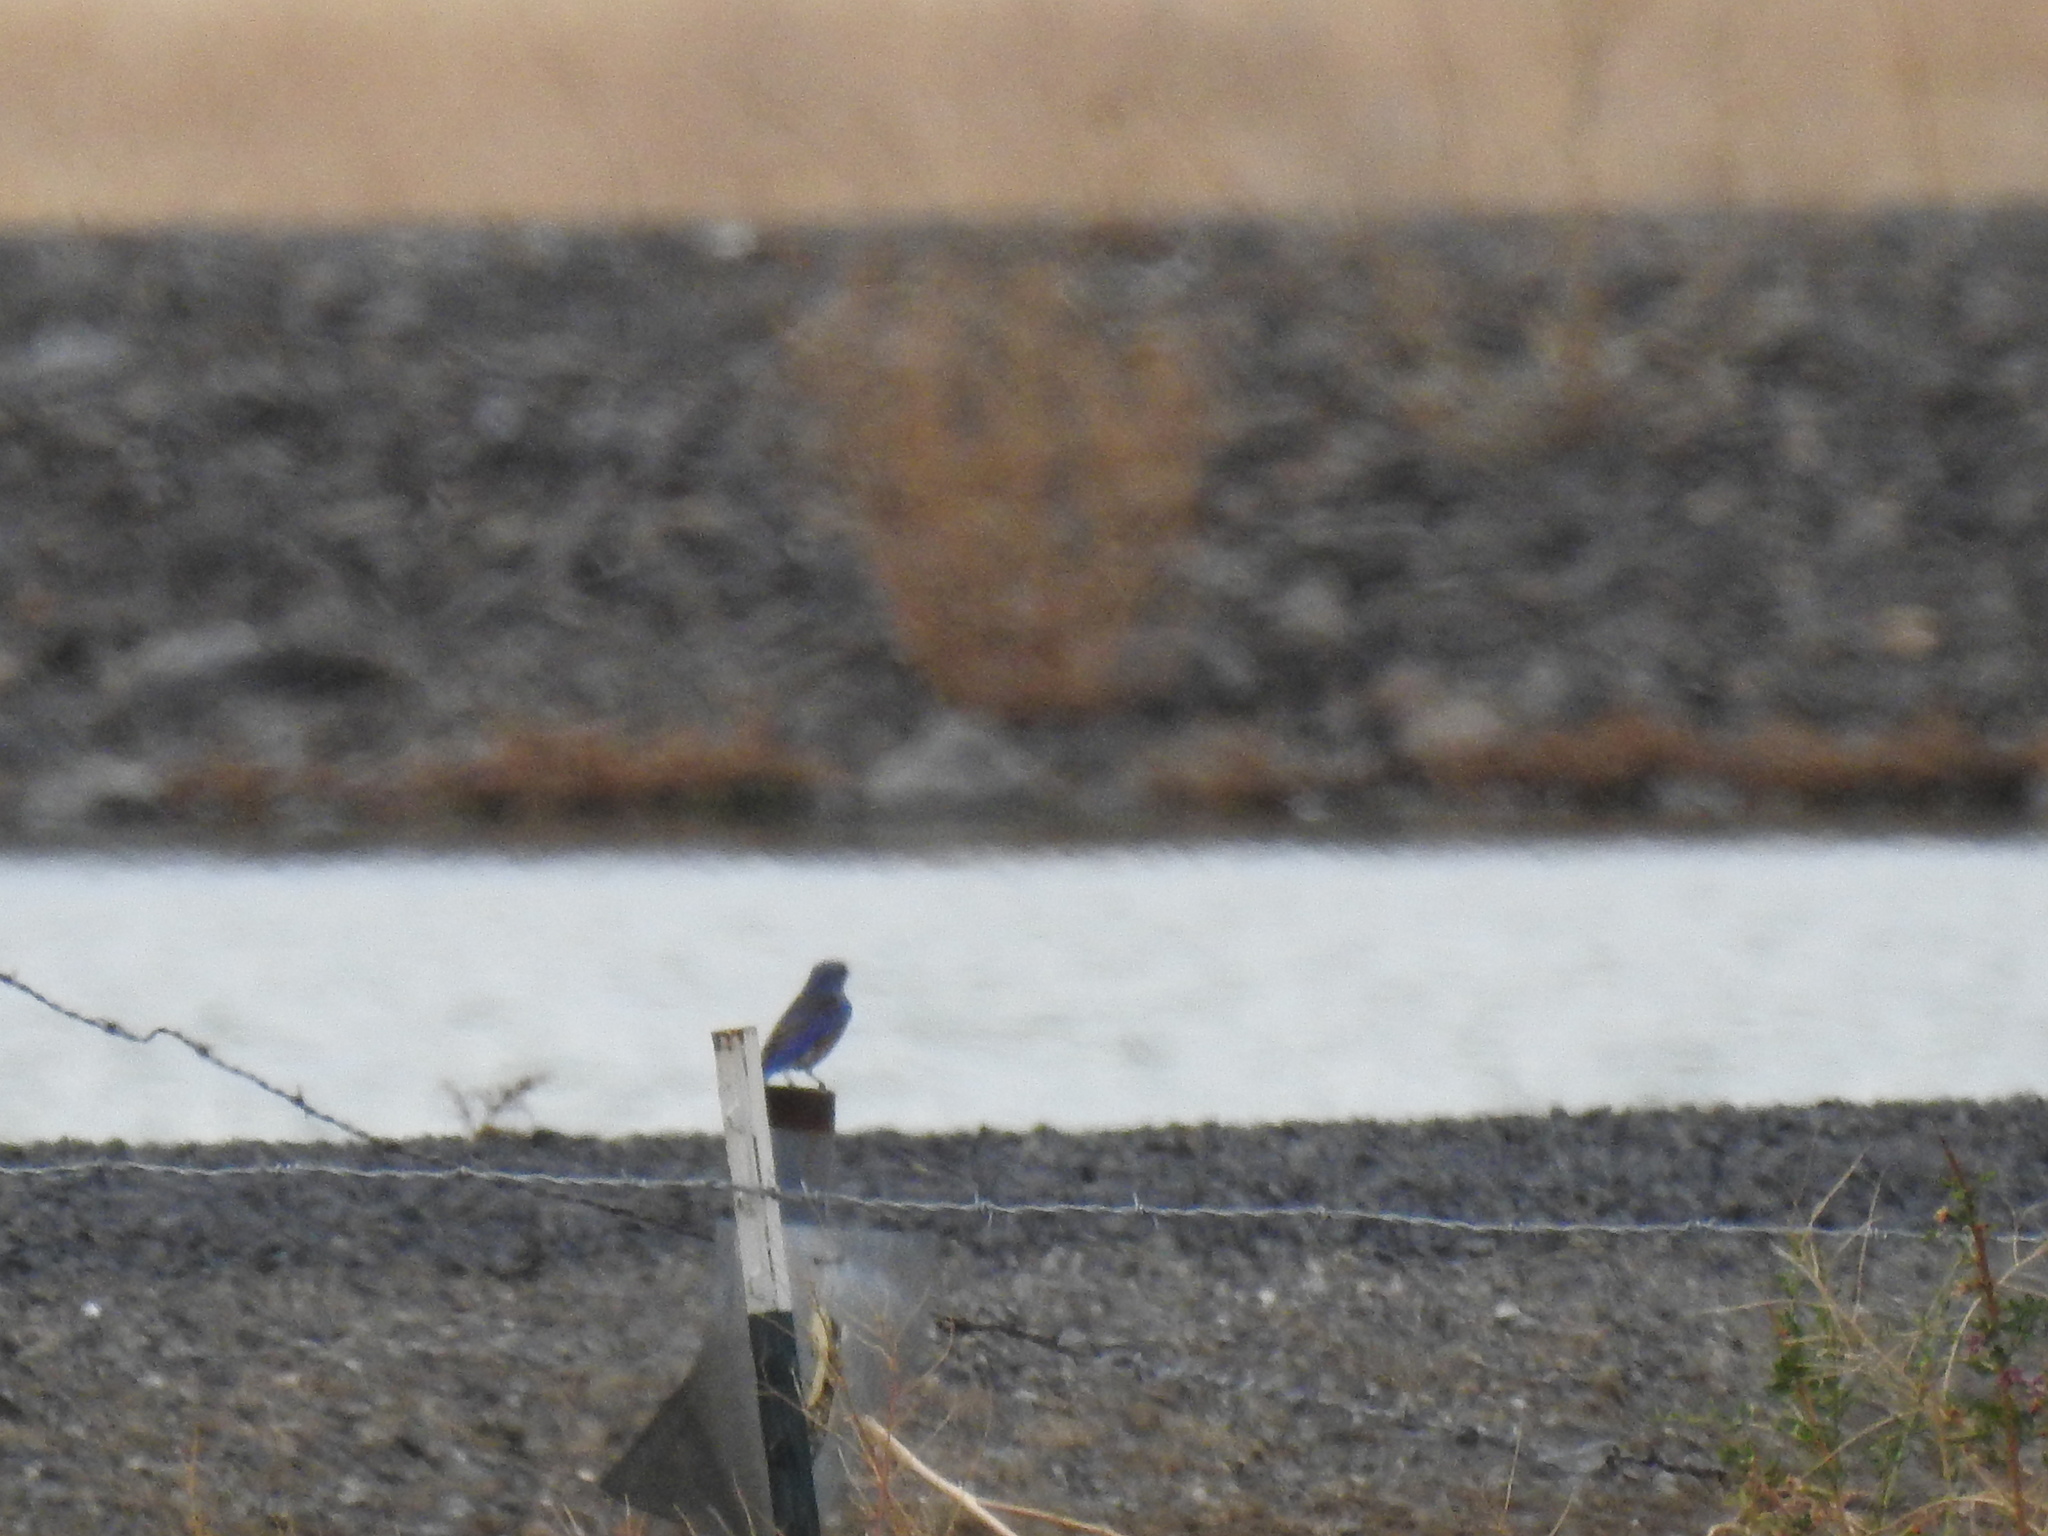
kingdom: Animalia
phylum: Chordata
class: Aves
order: Passeriformes
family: Turdidae
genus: Sialia
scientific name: Sialia mexicana
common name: Western bluebird
